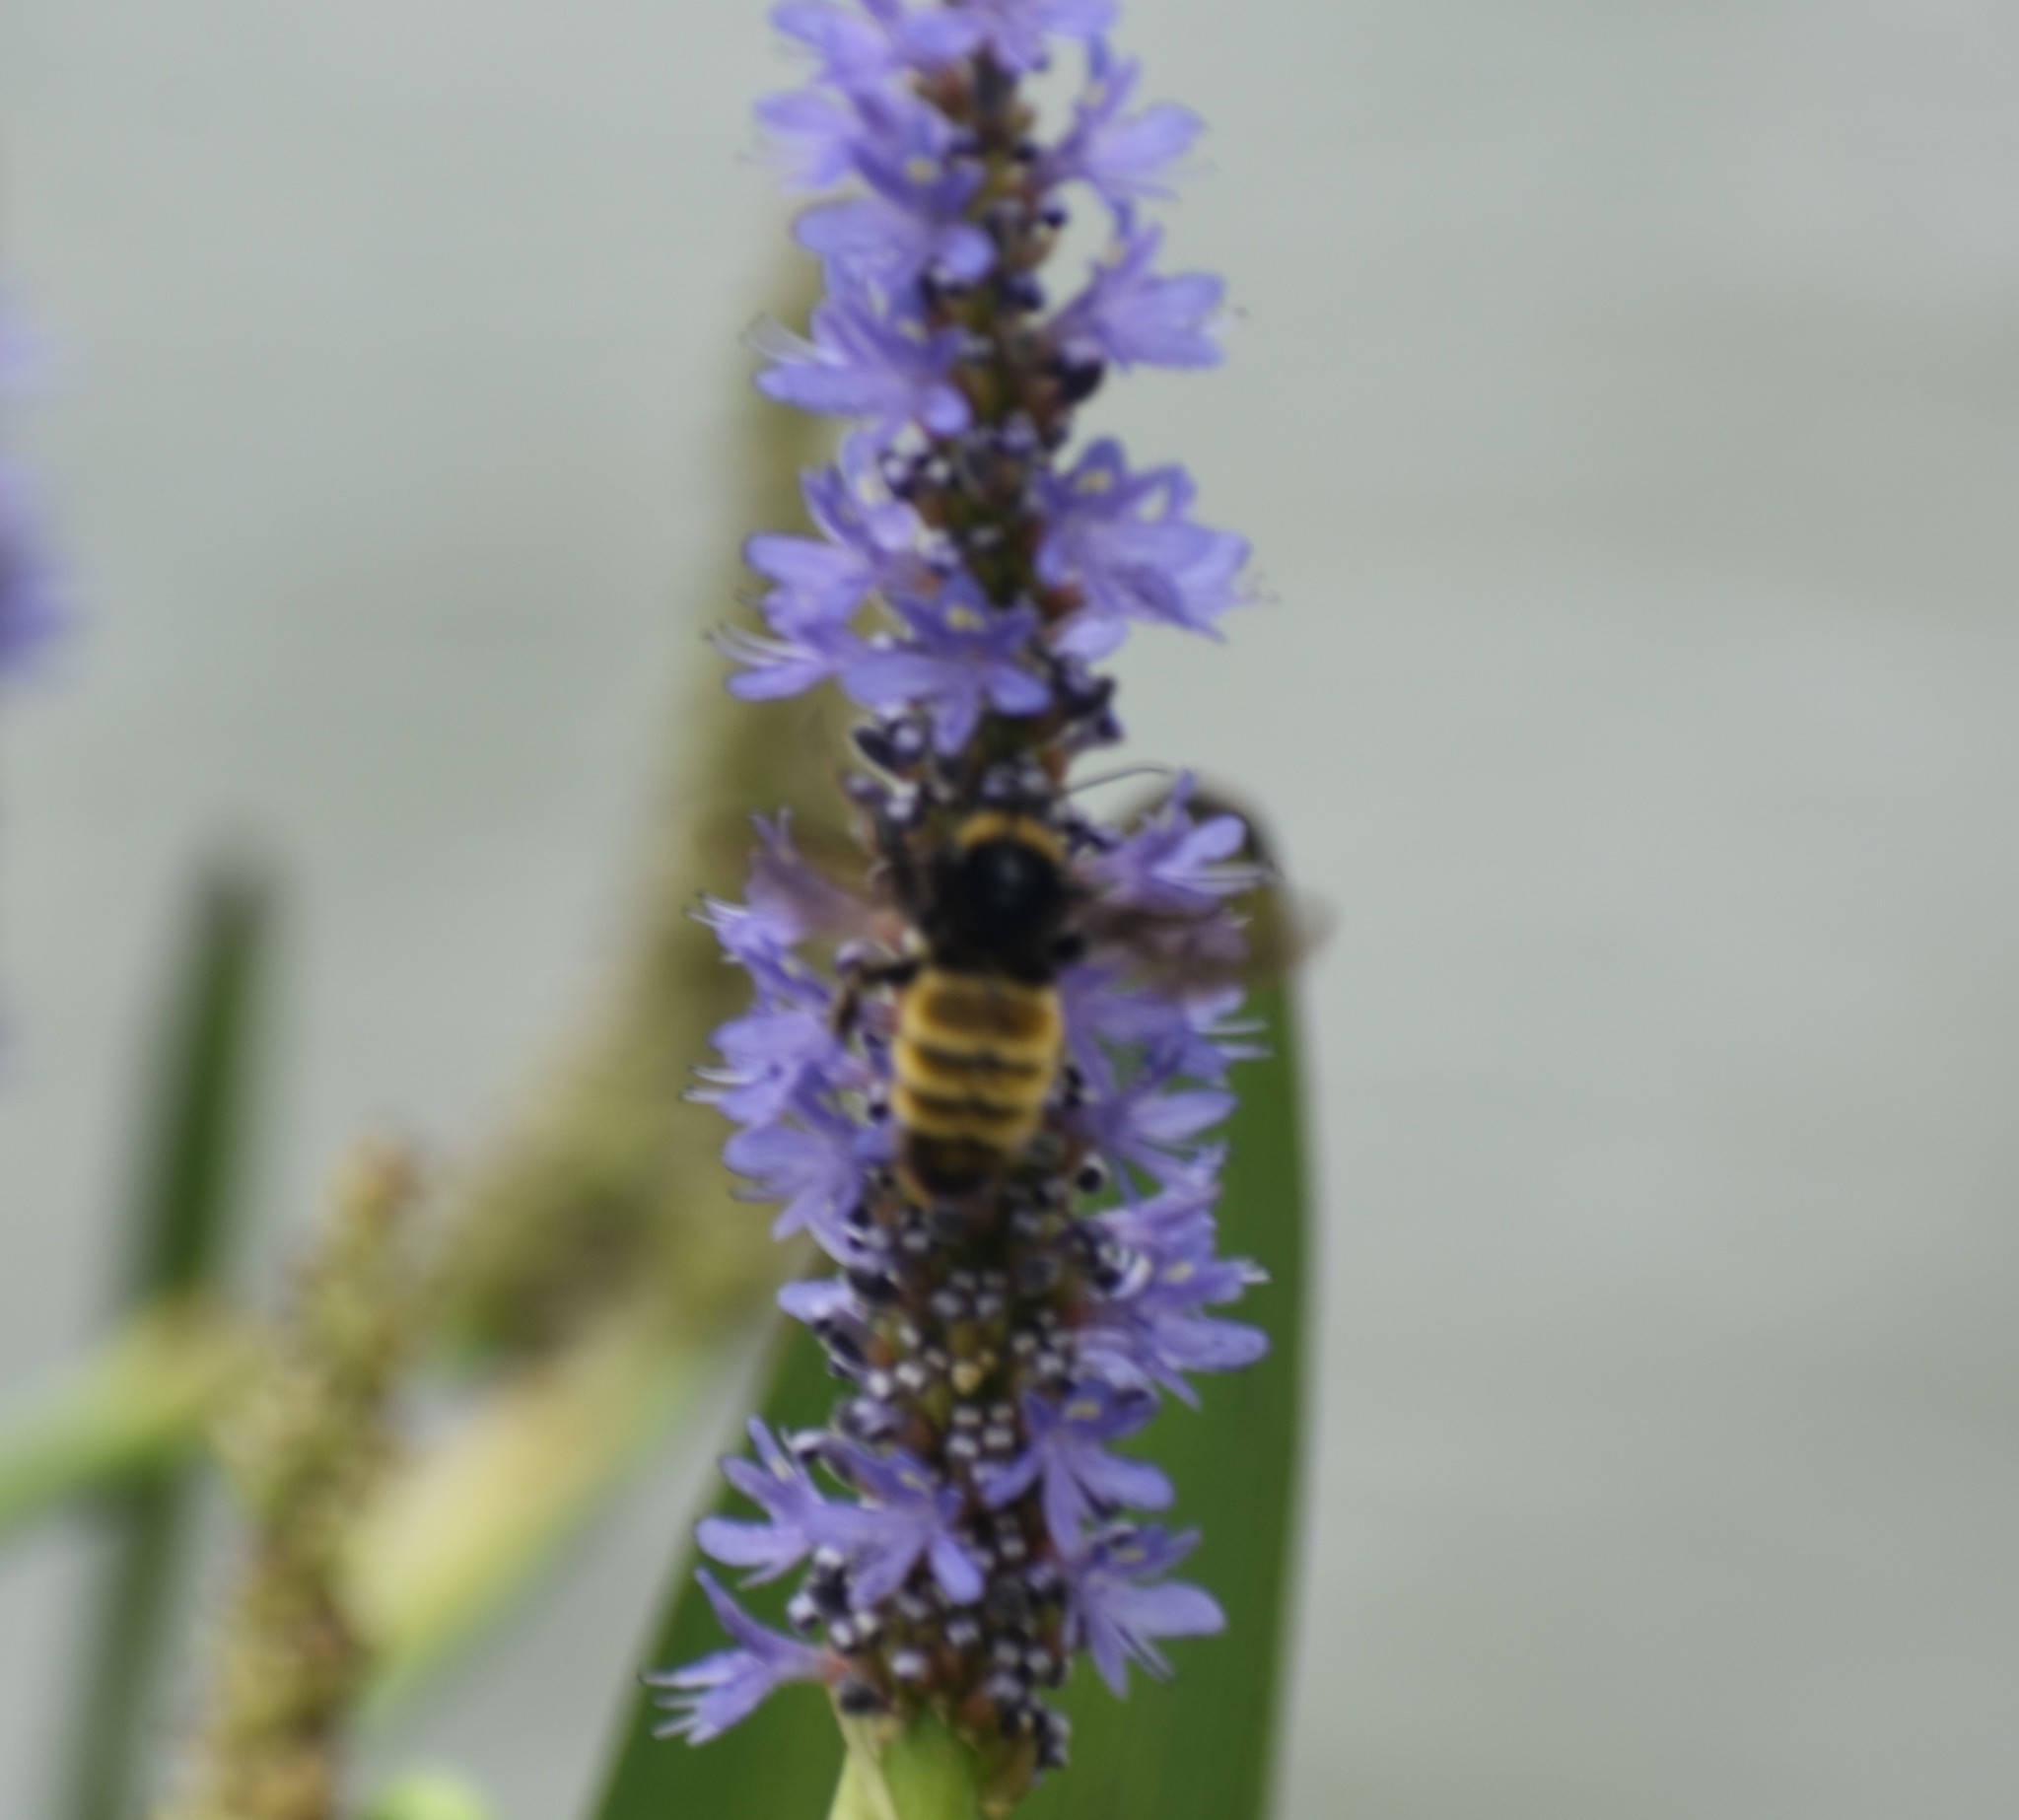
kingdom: Animalia
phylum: Arthropoda
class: Insecta
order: Hymenoptera
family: Apidae
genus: Bombus
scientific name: Bombus pensylvanicus
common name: Bumble bee
